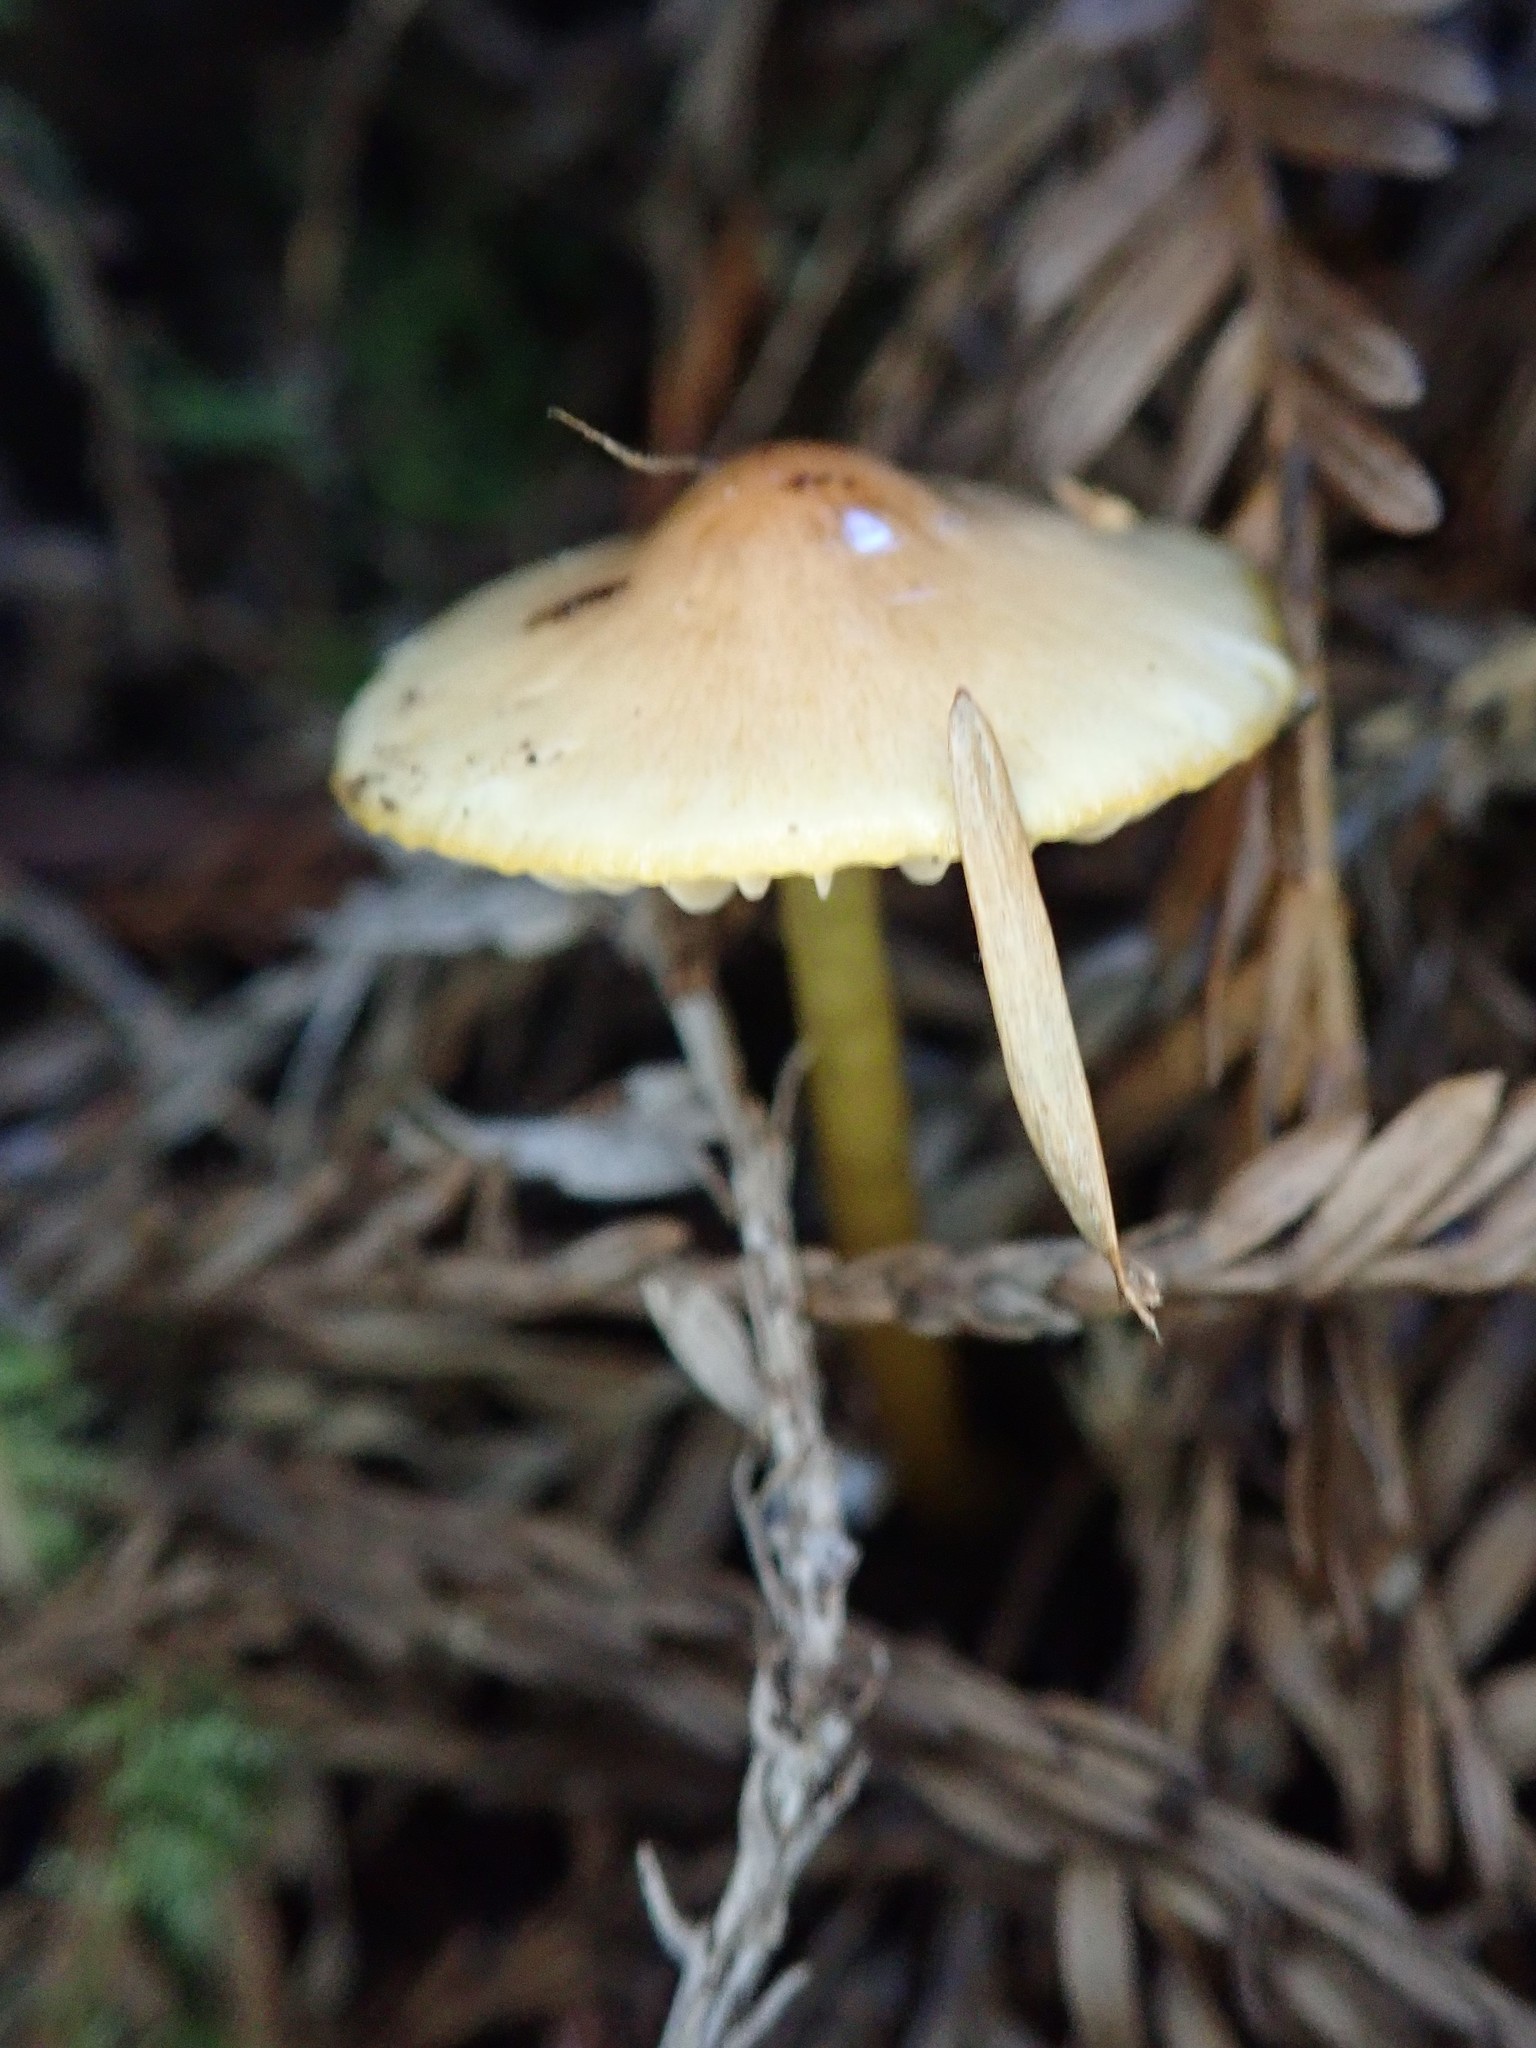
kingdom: Fungi
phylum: Basidiomycota
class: Agaricomycetes
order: Agaricales
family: Hygrophoraceae
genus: Gliophorus
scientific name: Gliophorus psittacinus
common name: Parrot wax-cap
